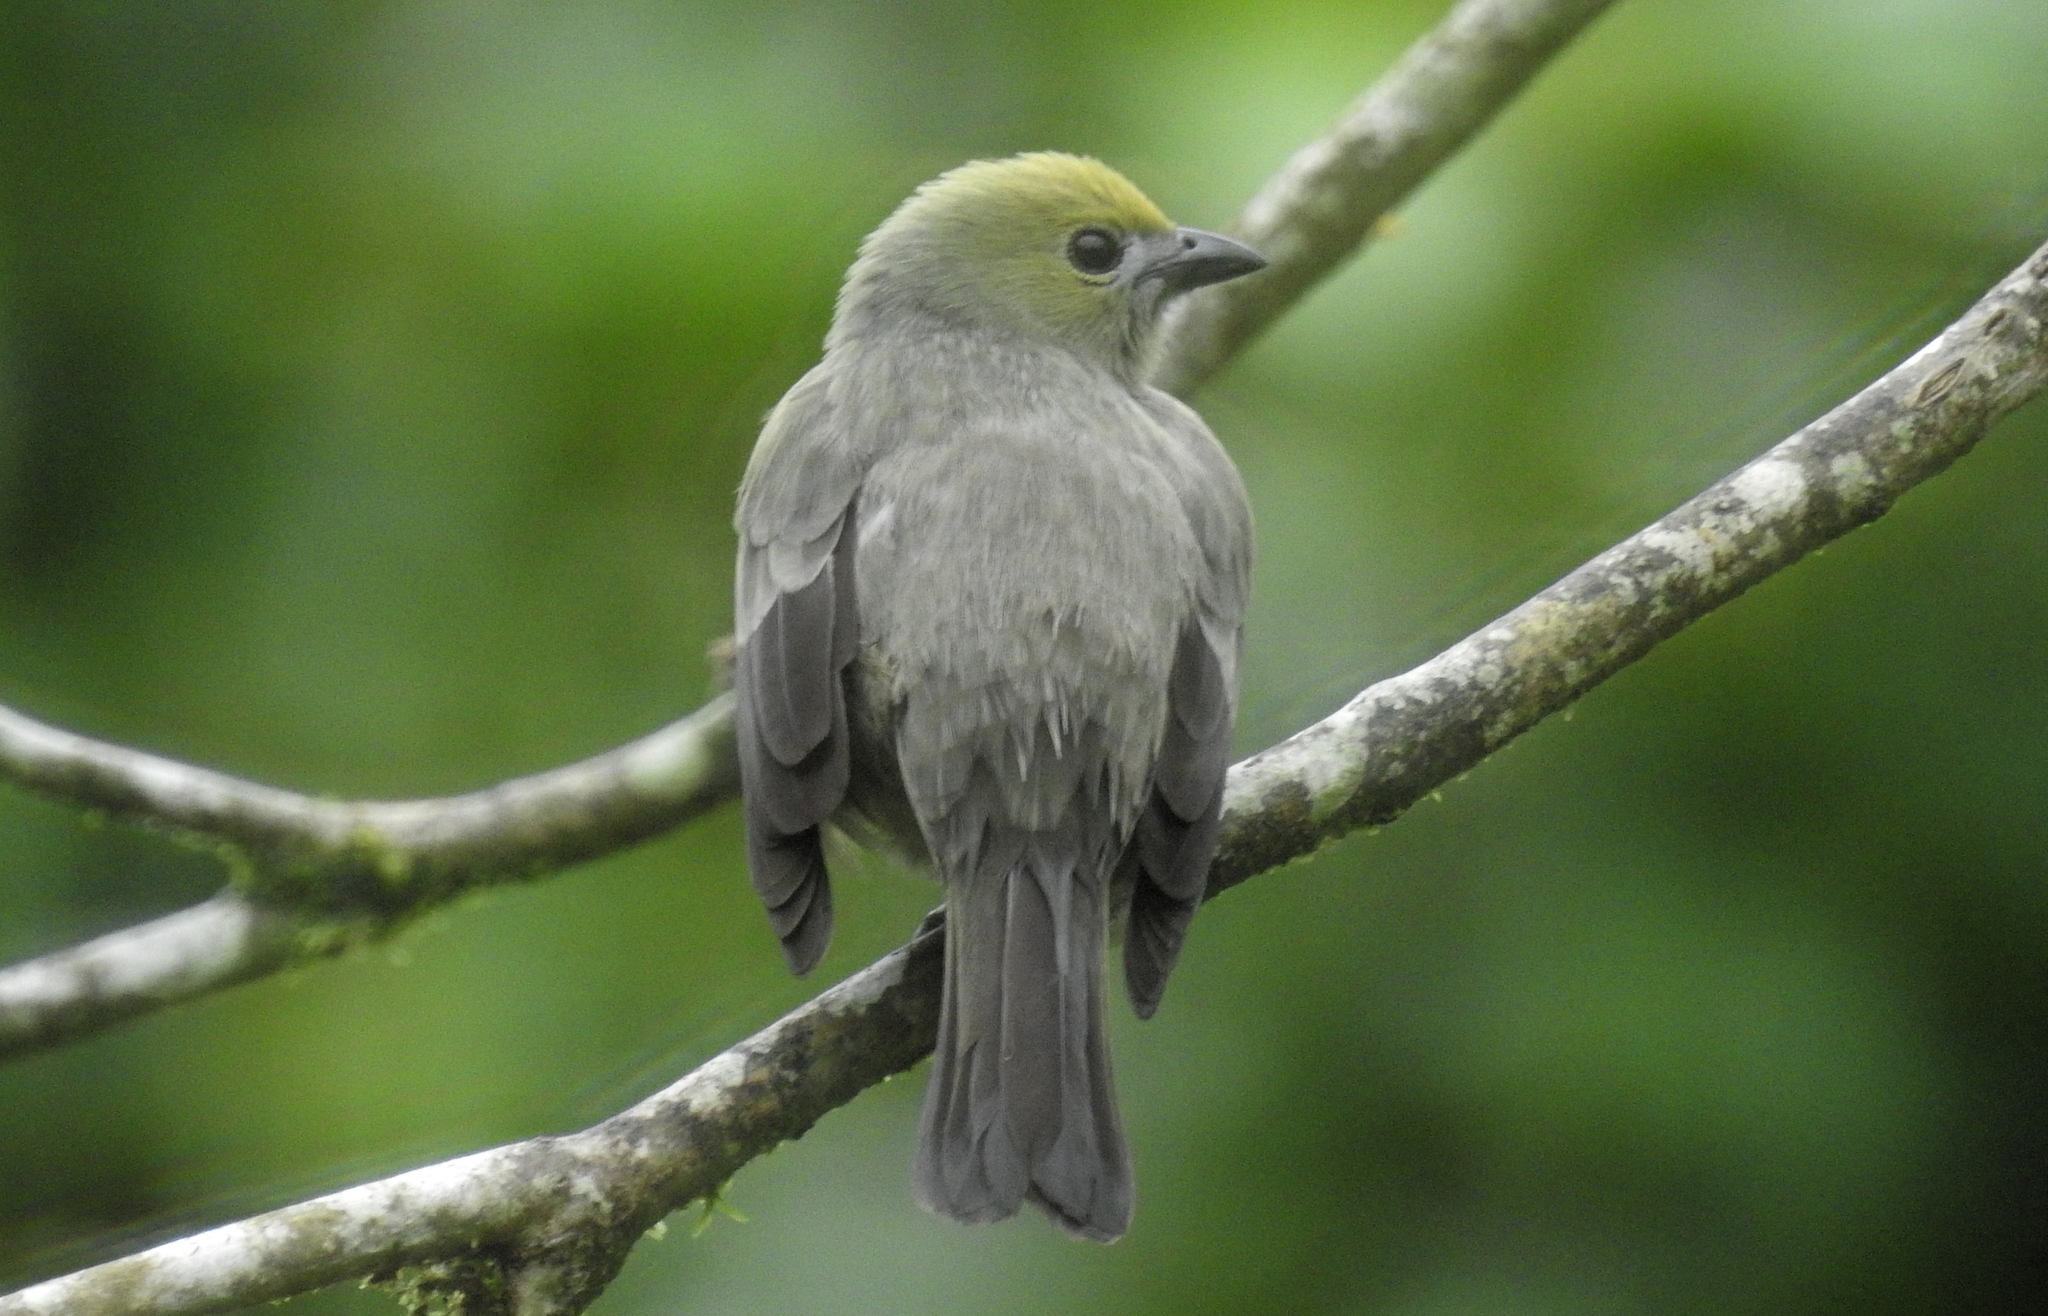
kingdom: Animalia
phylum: Chordata
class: Aves
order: Passeriformes
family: Thraupidae
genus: Thraupis
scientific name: Thraupis palmarum
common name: Palm tanager
